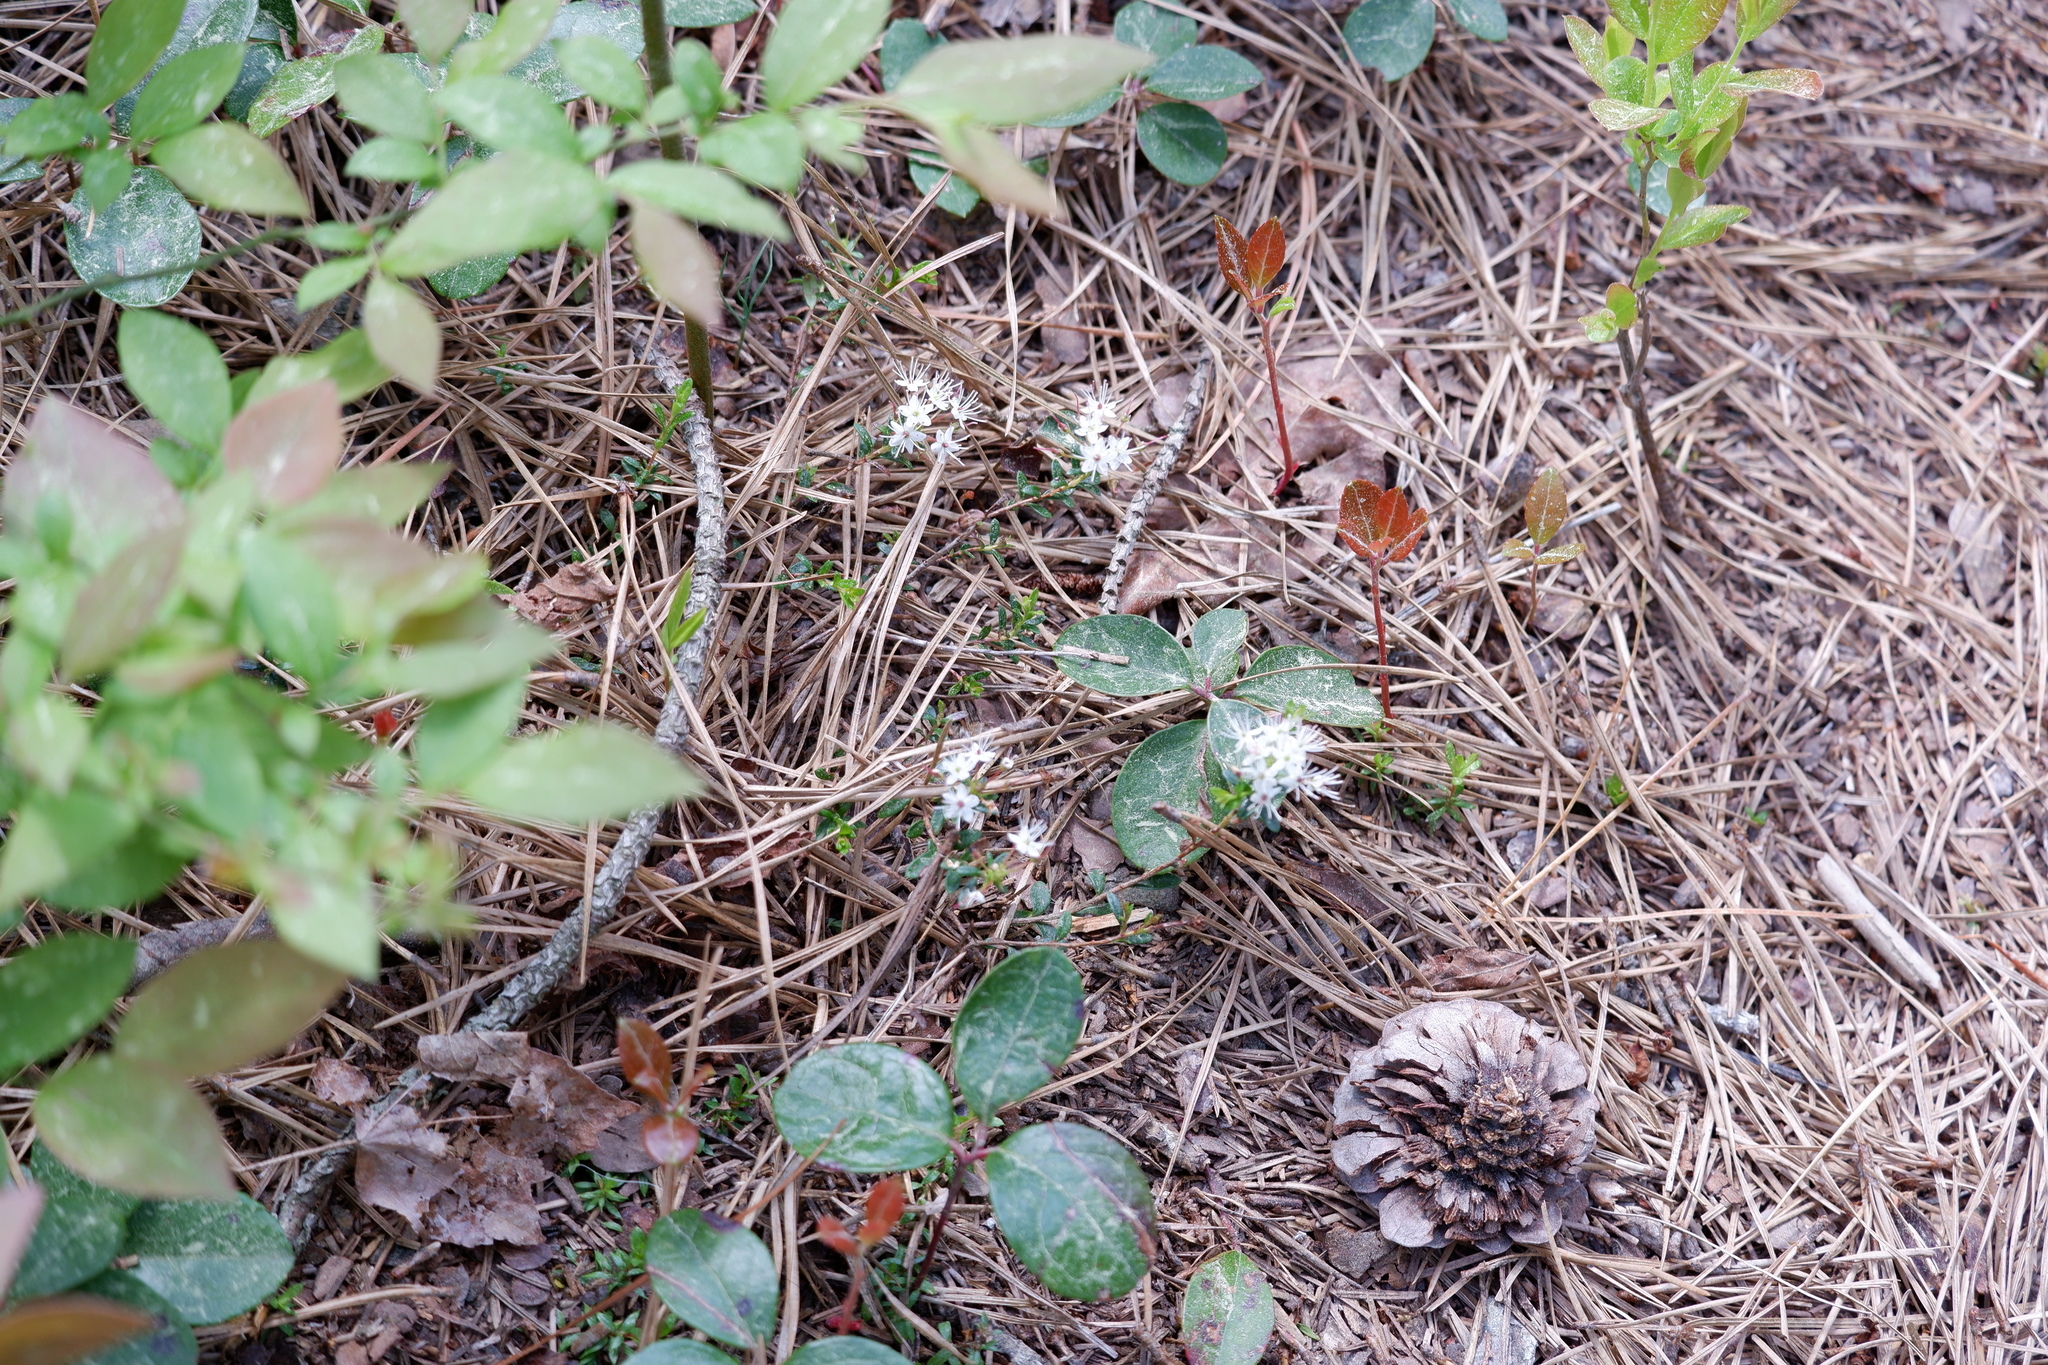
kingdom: Plantae
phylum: Tracheophyta
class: Magnoliopsida
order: Ericales
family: Ericaceae
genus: Kalmia
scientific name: Kalmia buxifolia
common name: Sandmyrtle
